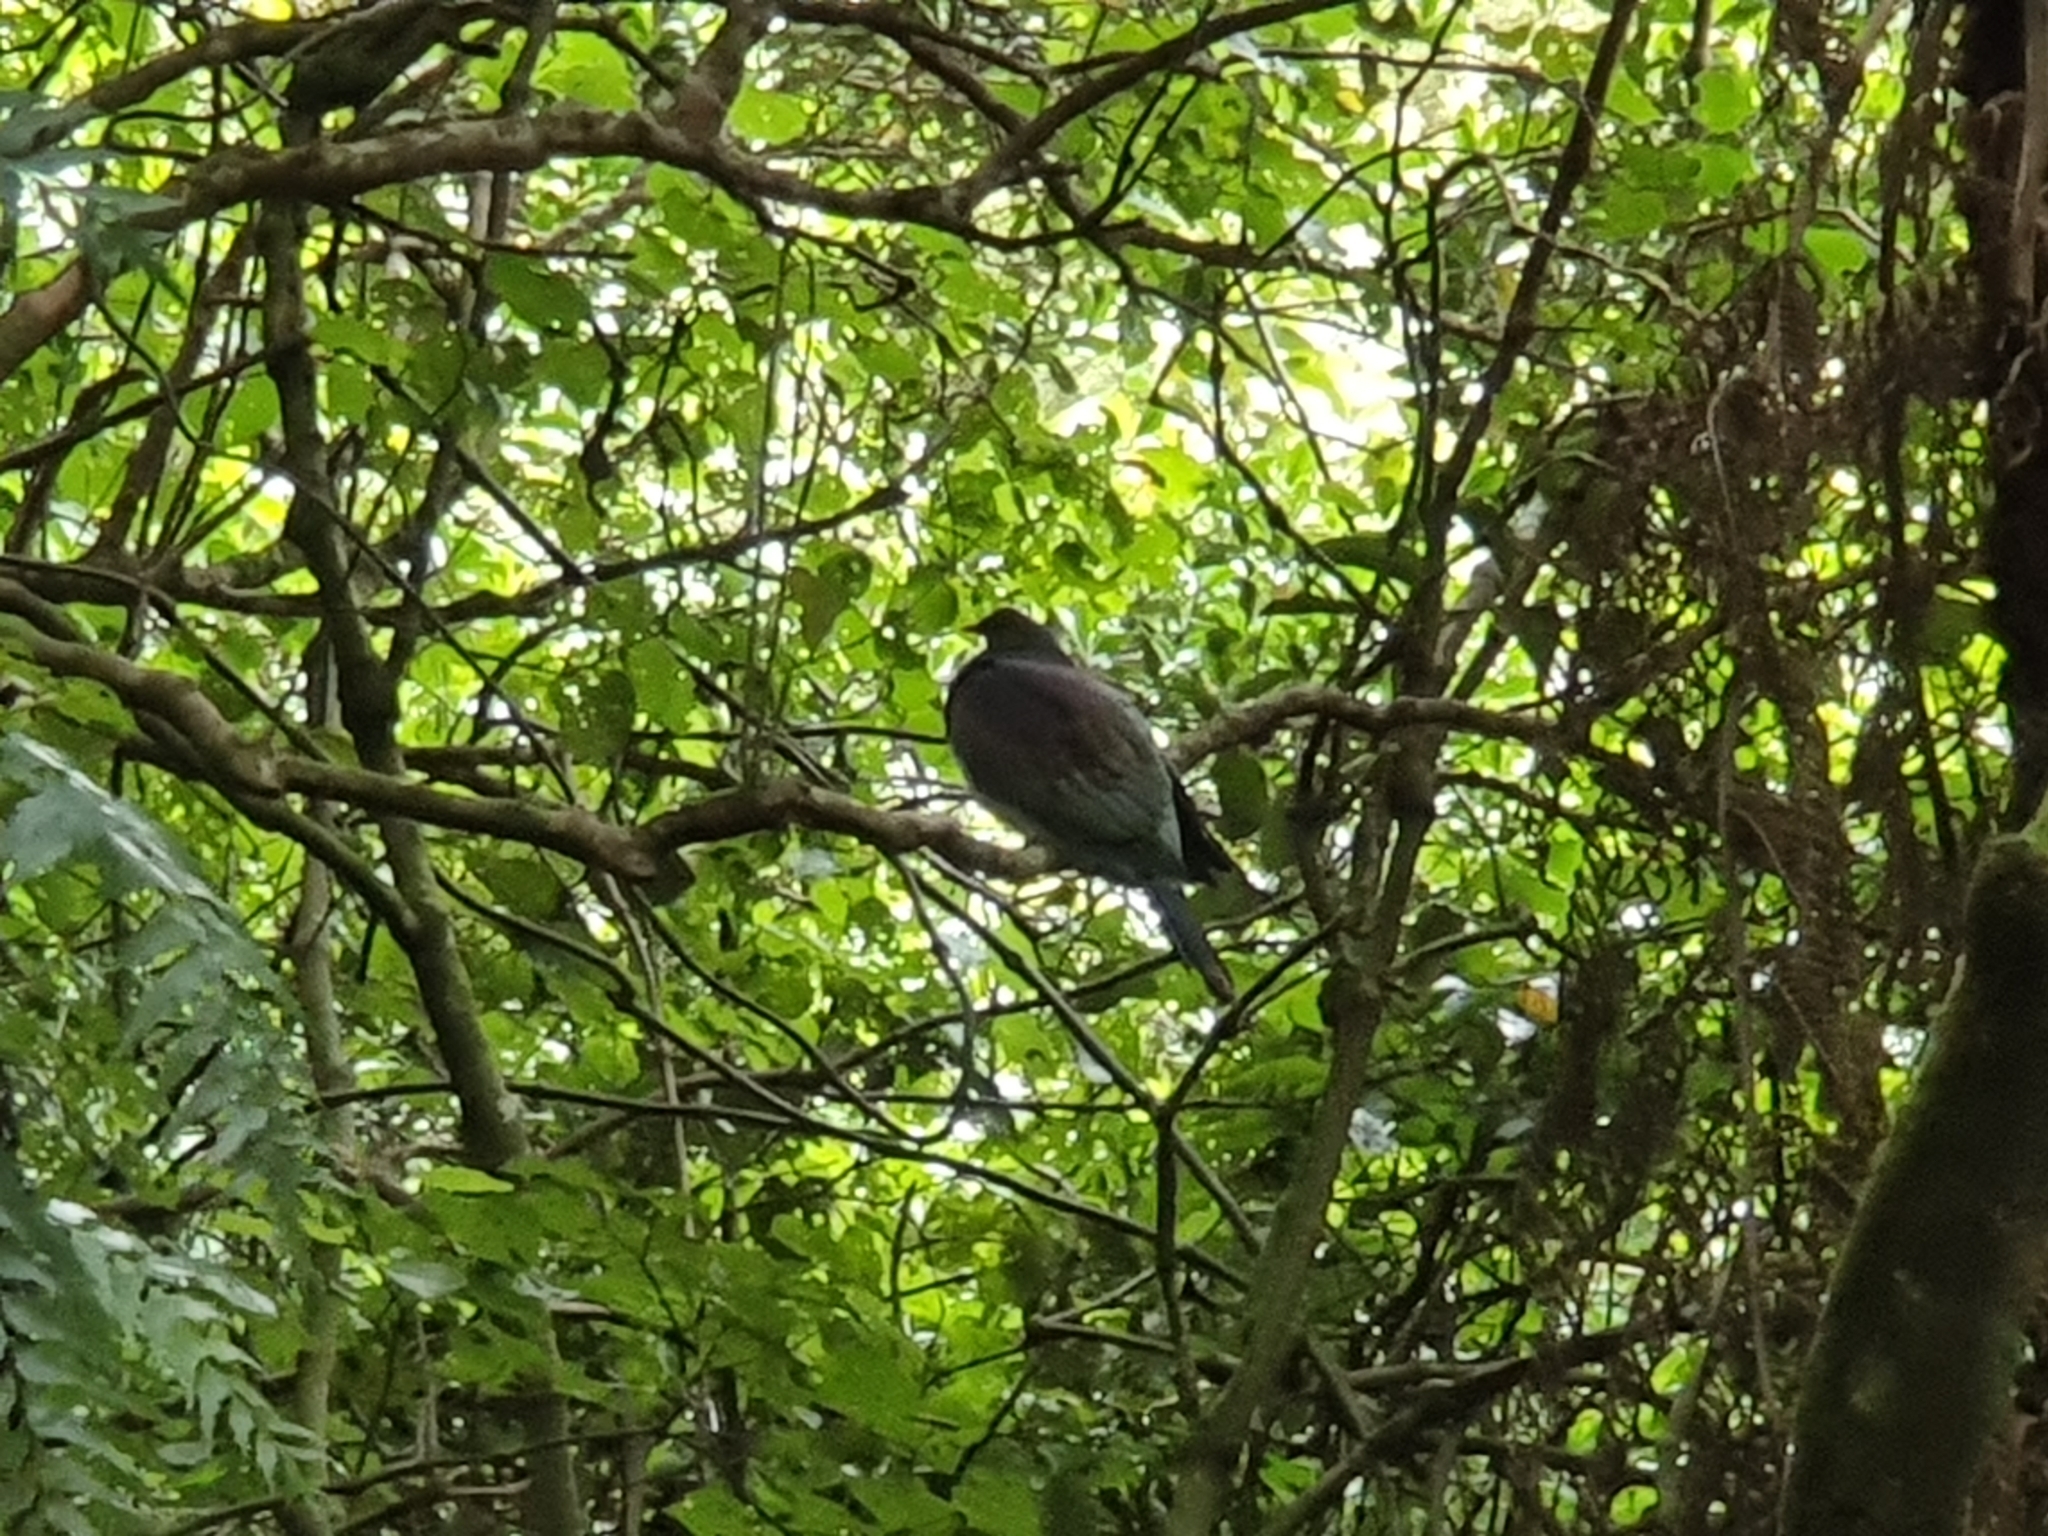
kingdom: Animalia
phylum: Chordata
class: Aves
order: Columbiformes
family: Columbidae
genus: Hemiphaga
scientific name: Hemiphaga novaeseelandiae
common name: New zealand pigeon
